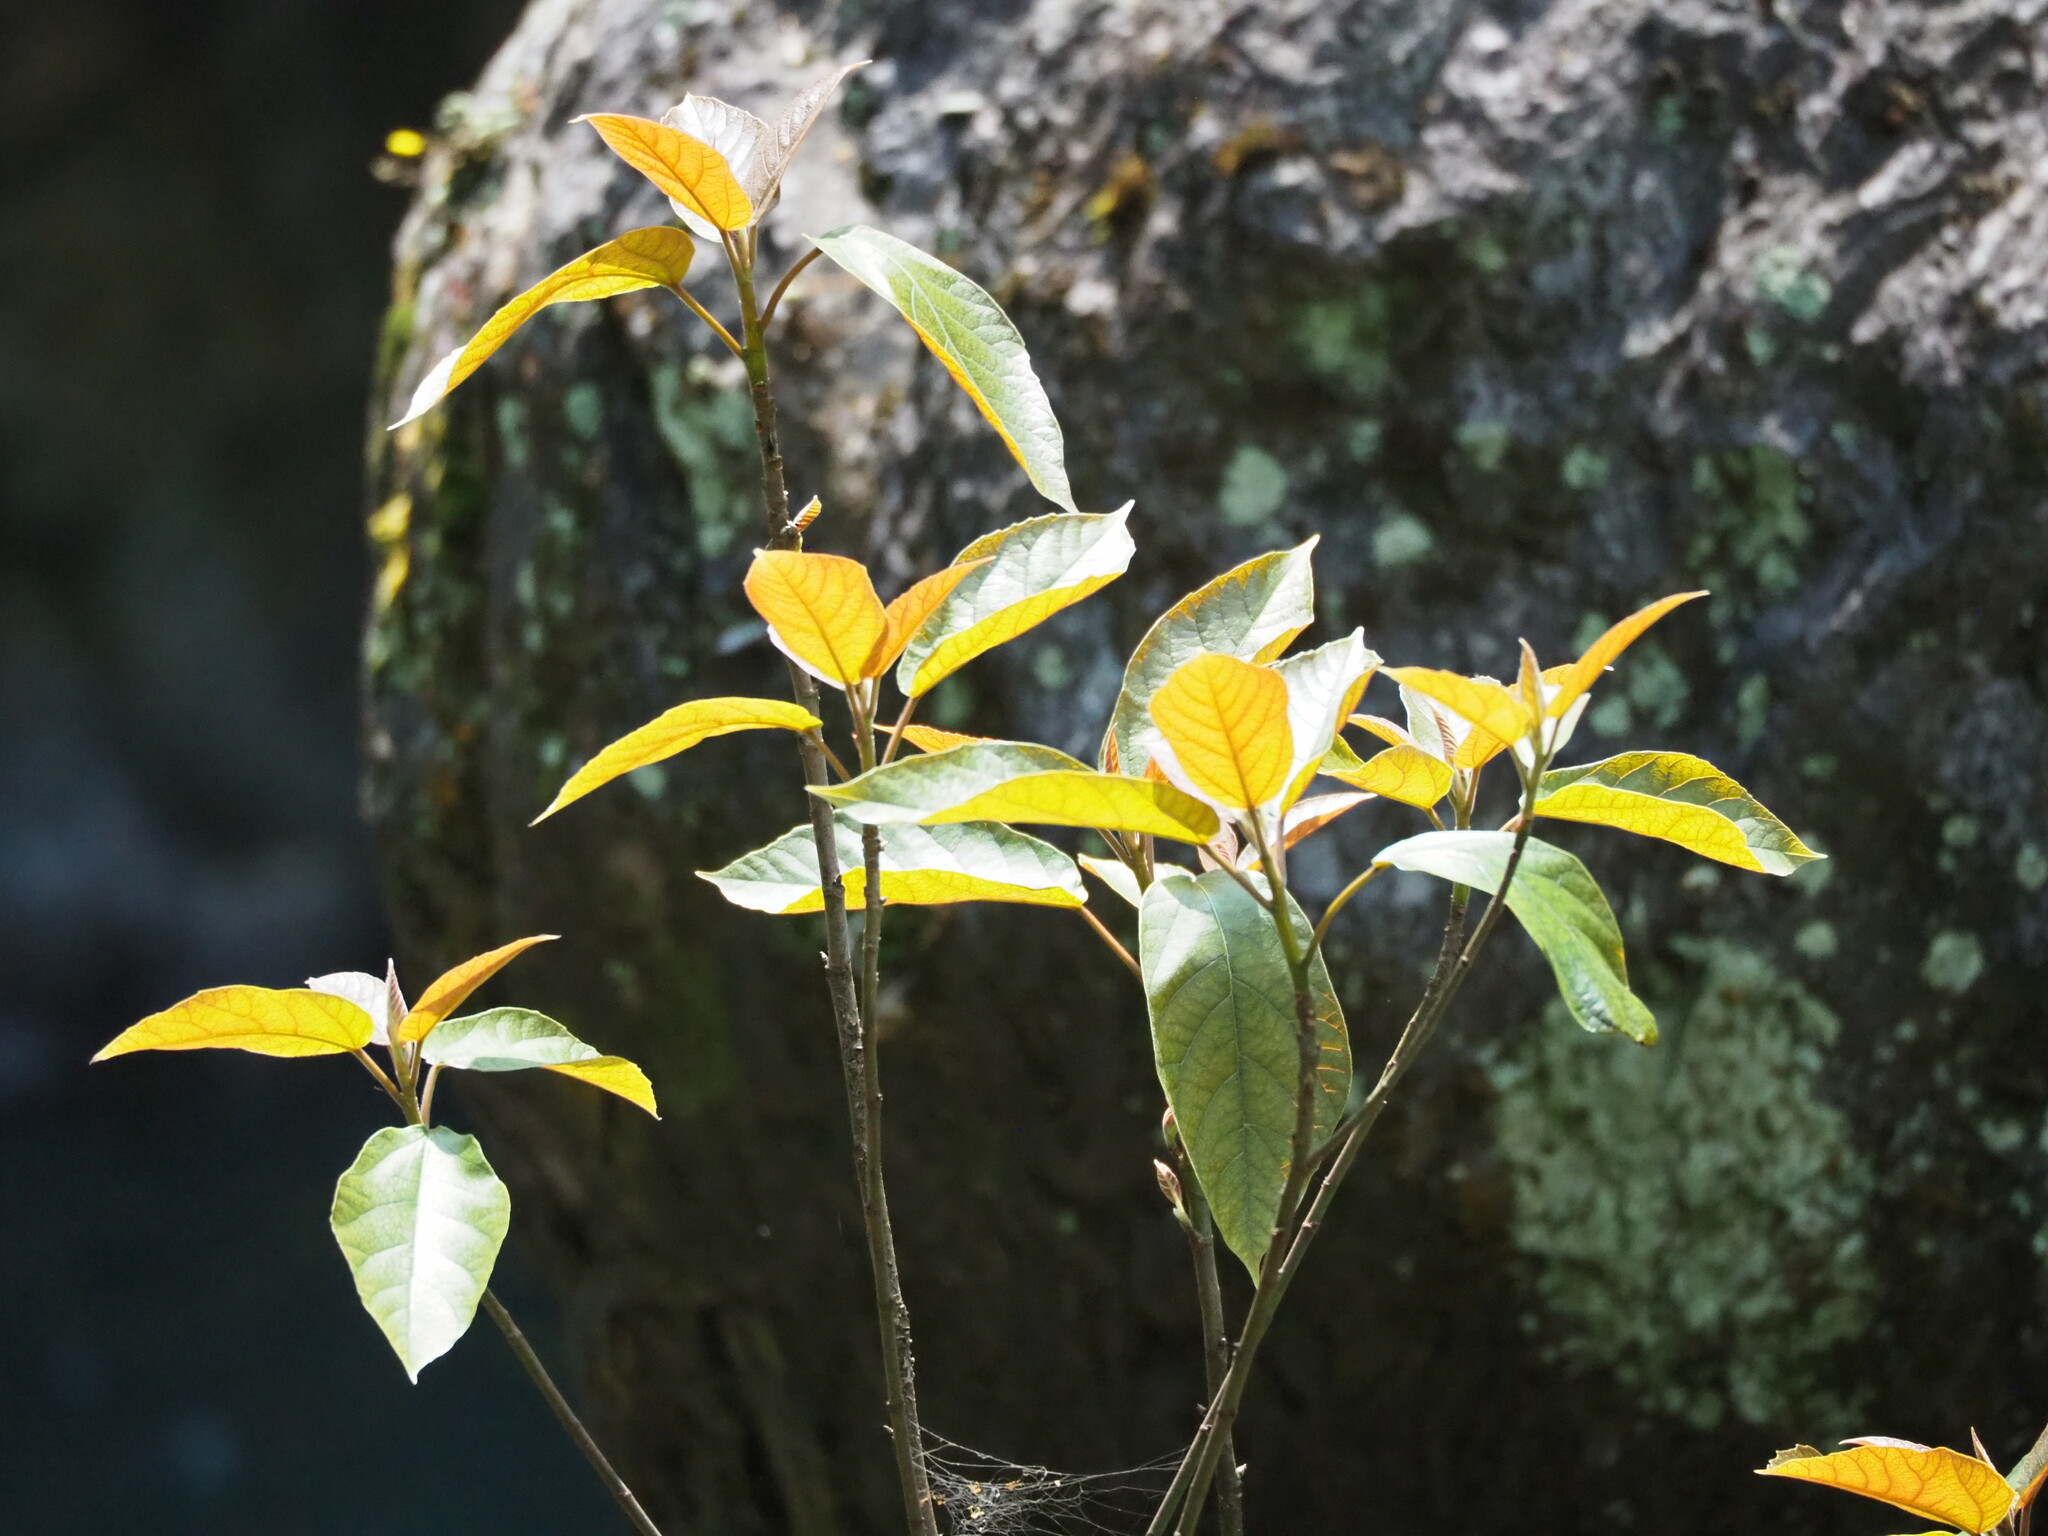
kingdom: Plantae
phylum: Tracheophyta
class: Magnoliopsida
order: Rosales
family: Moraceae
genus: Ficus
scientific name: Ficus erecta
